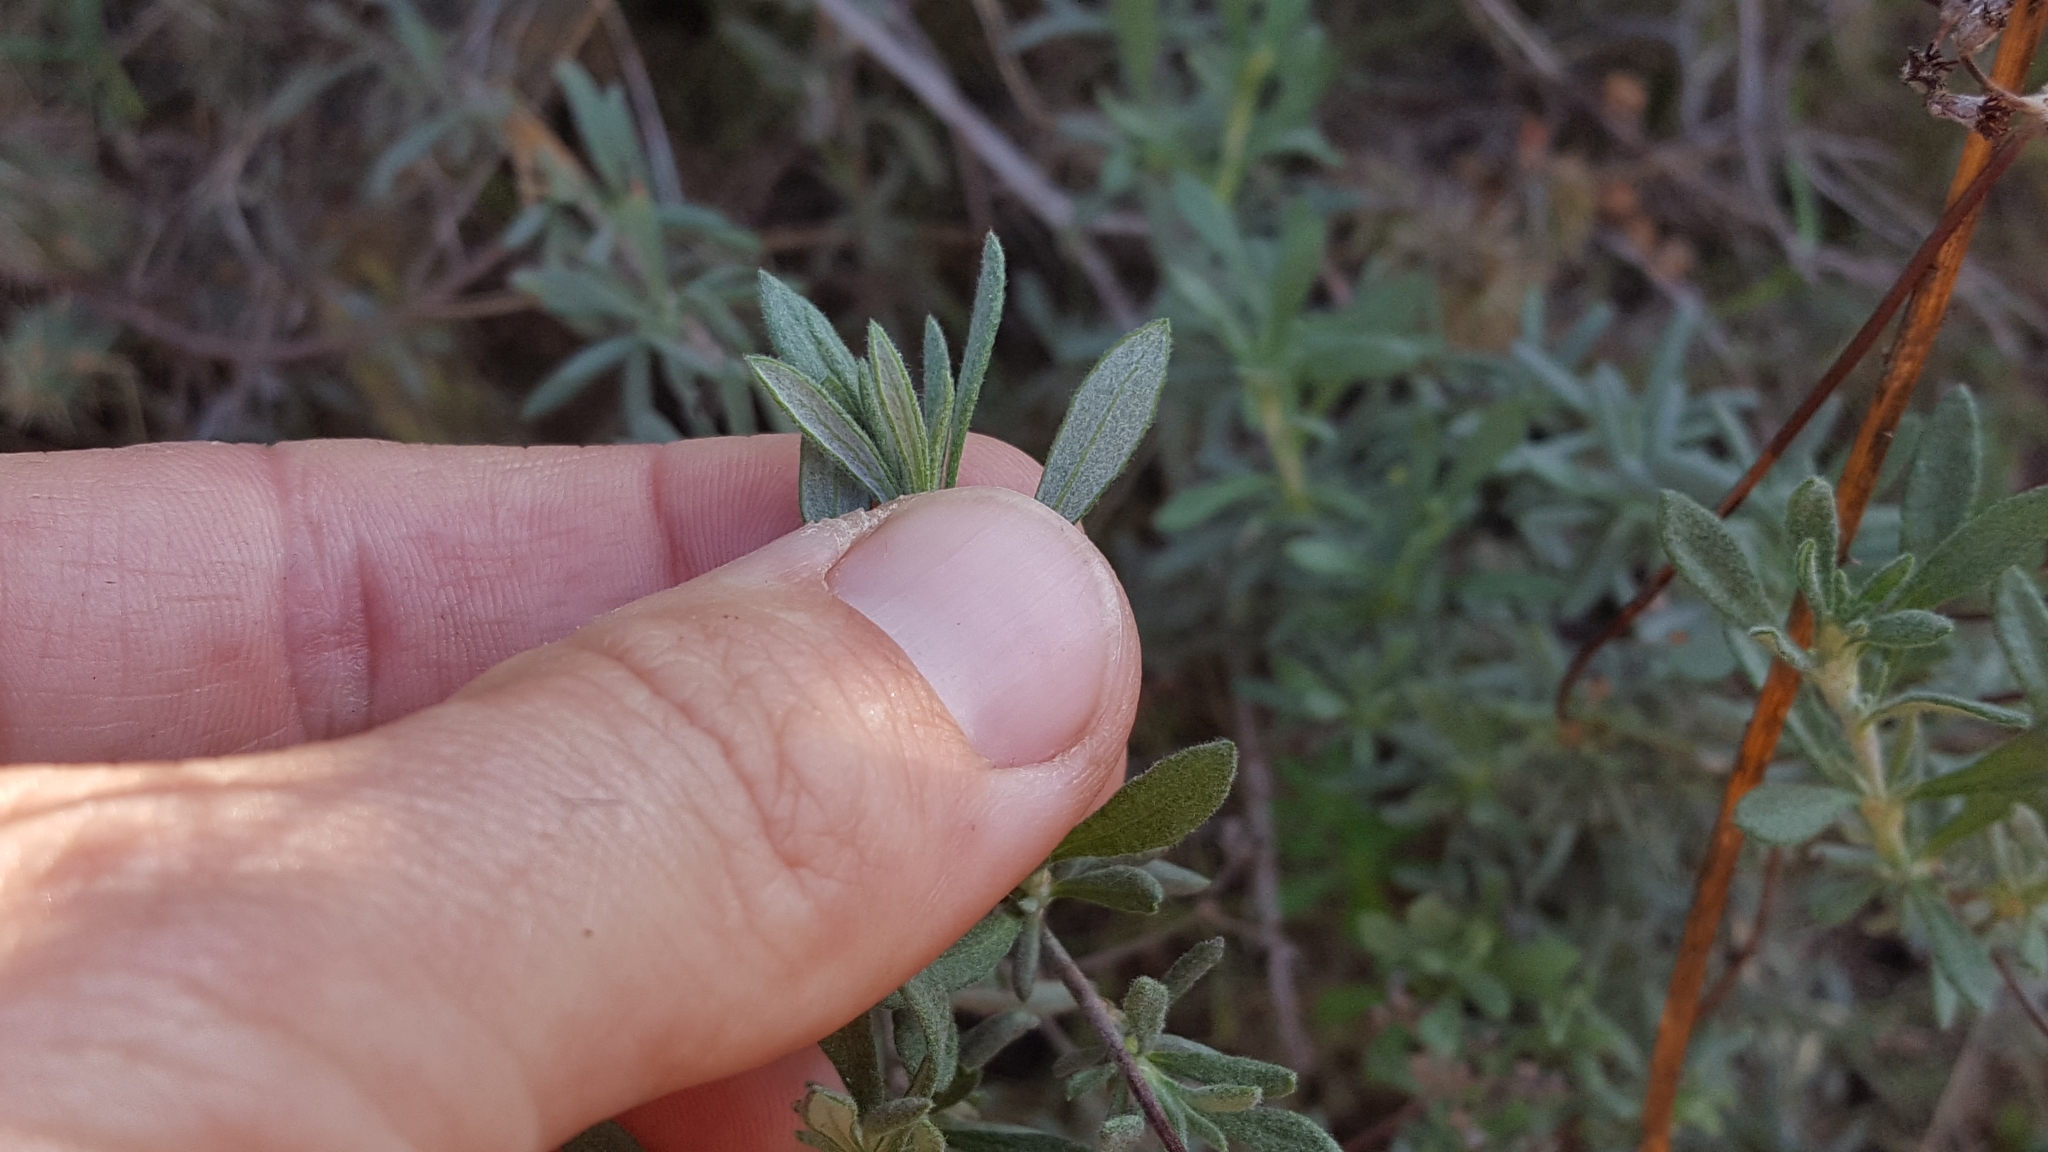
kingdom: Plantae
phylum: Tracheophyta
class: Magnoliopsida
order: Caryophyllales
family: Polygonaceae
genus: Eriogonum
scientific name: Eriogonum fasciculatum
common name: California wild buckwheat
